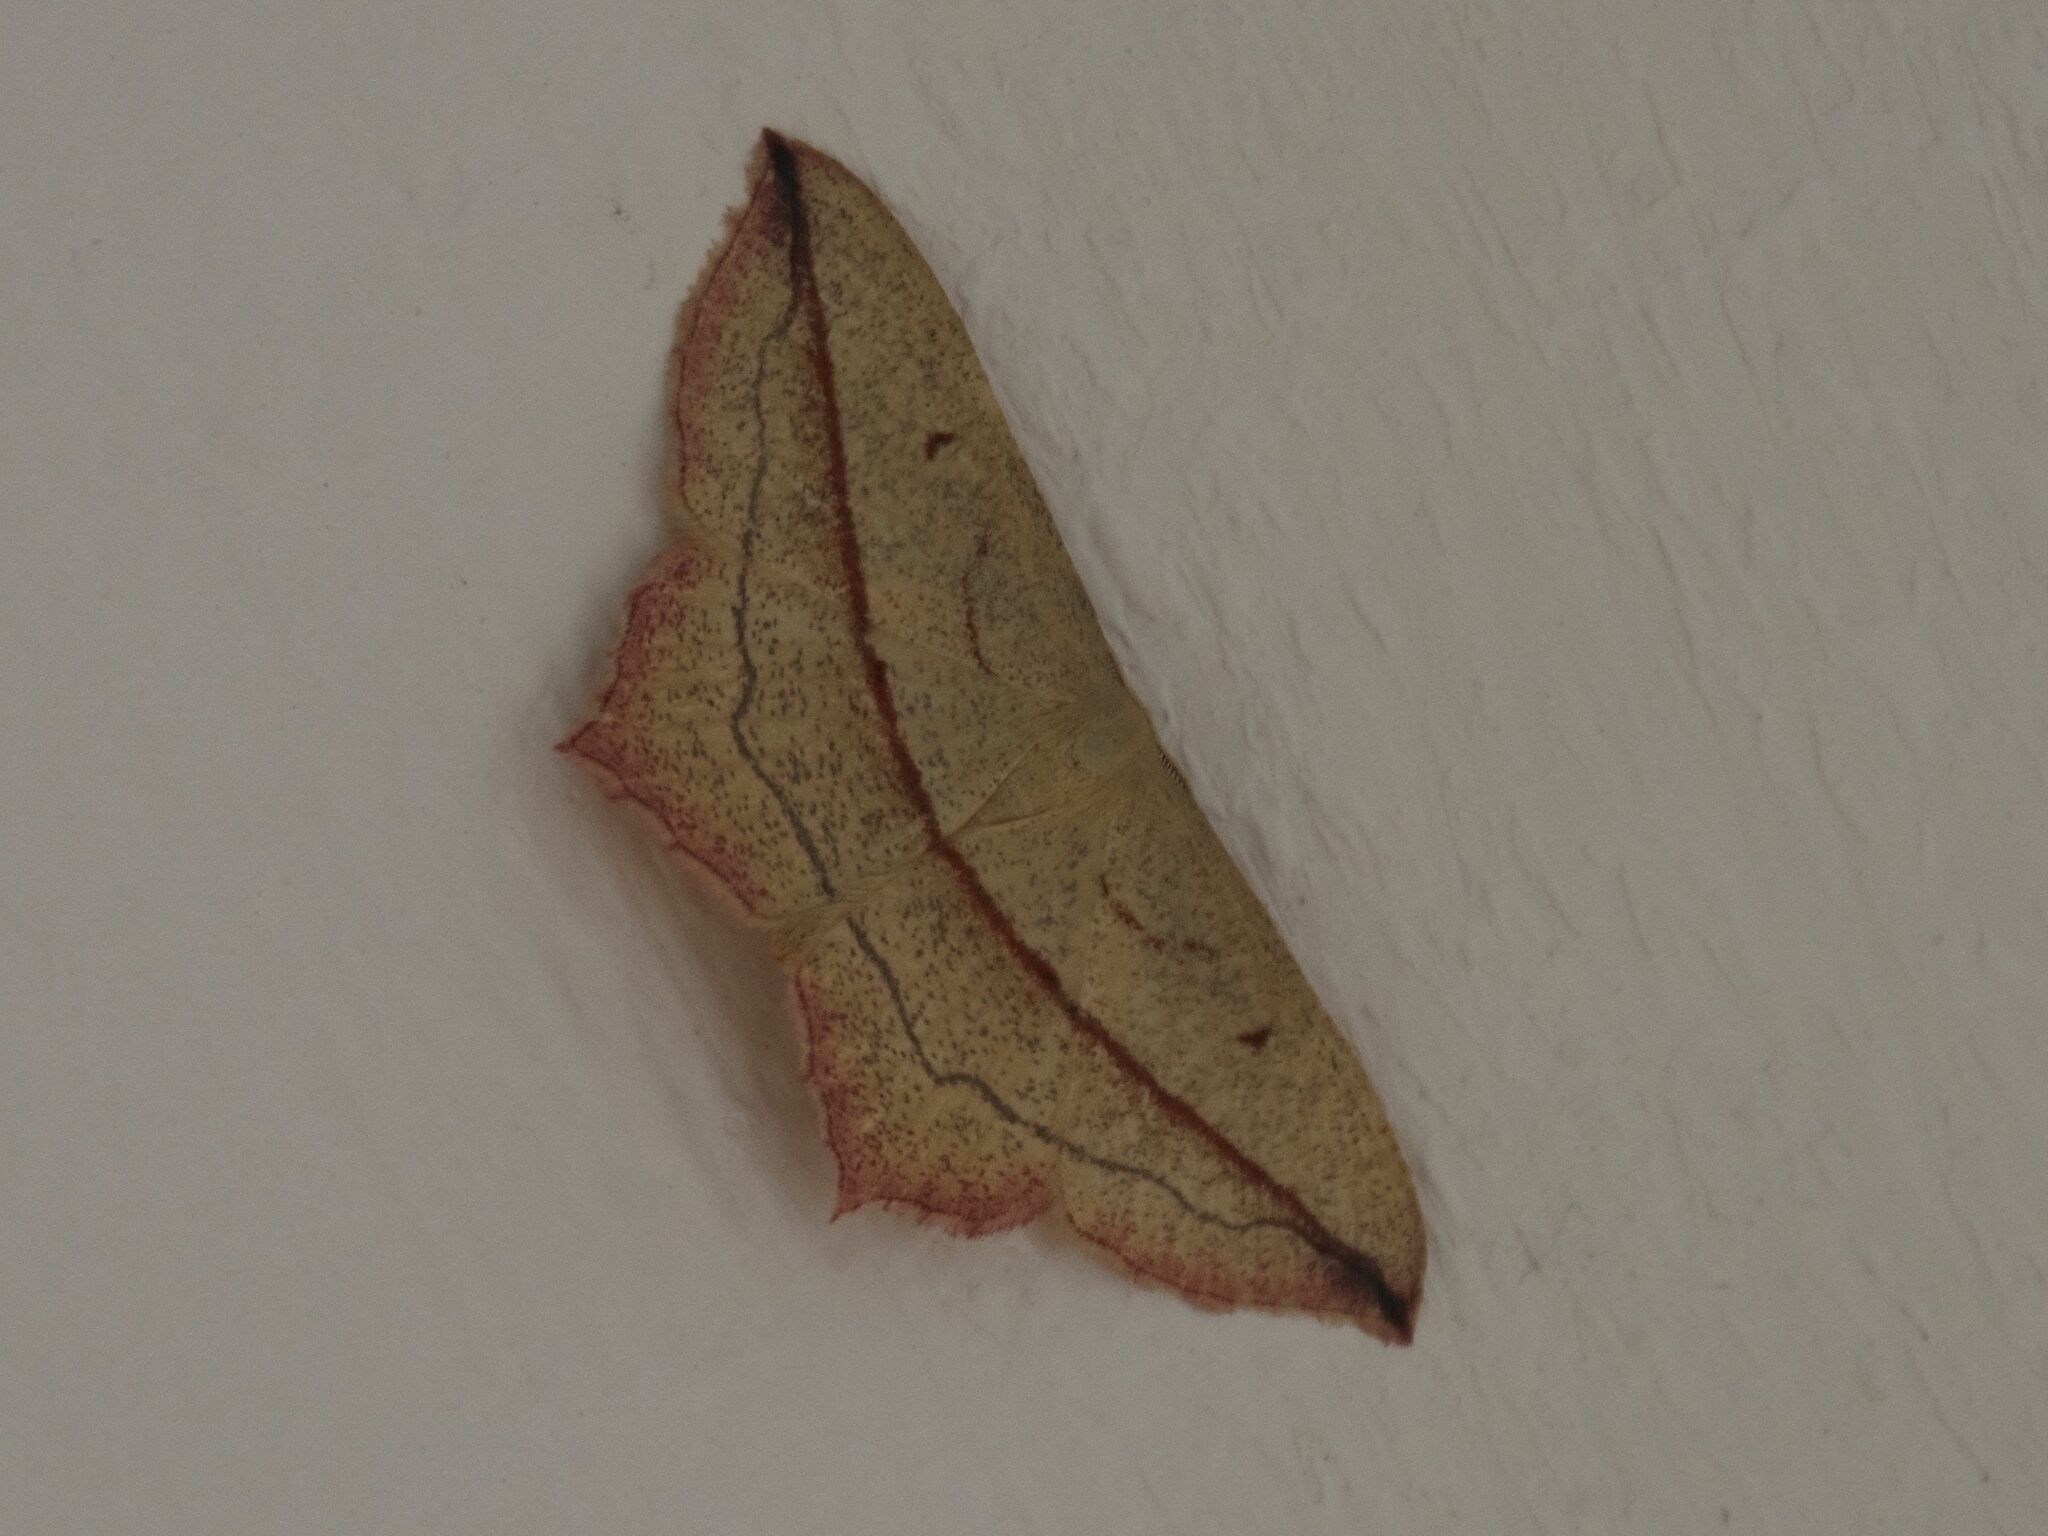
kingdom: Animalia
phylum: Arthropoda
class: Insecta
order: Lepidoptera
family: Geometridae
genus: Timandra
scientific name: Timandra comae
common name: Blood-vein
